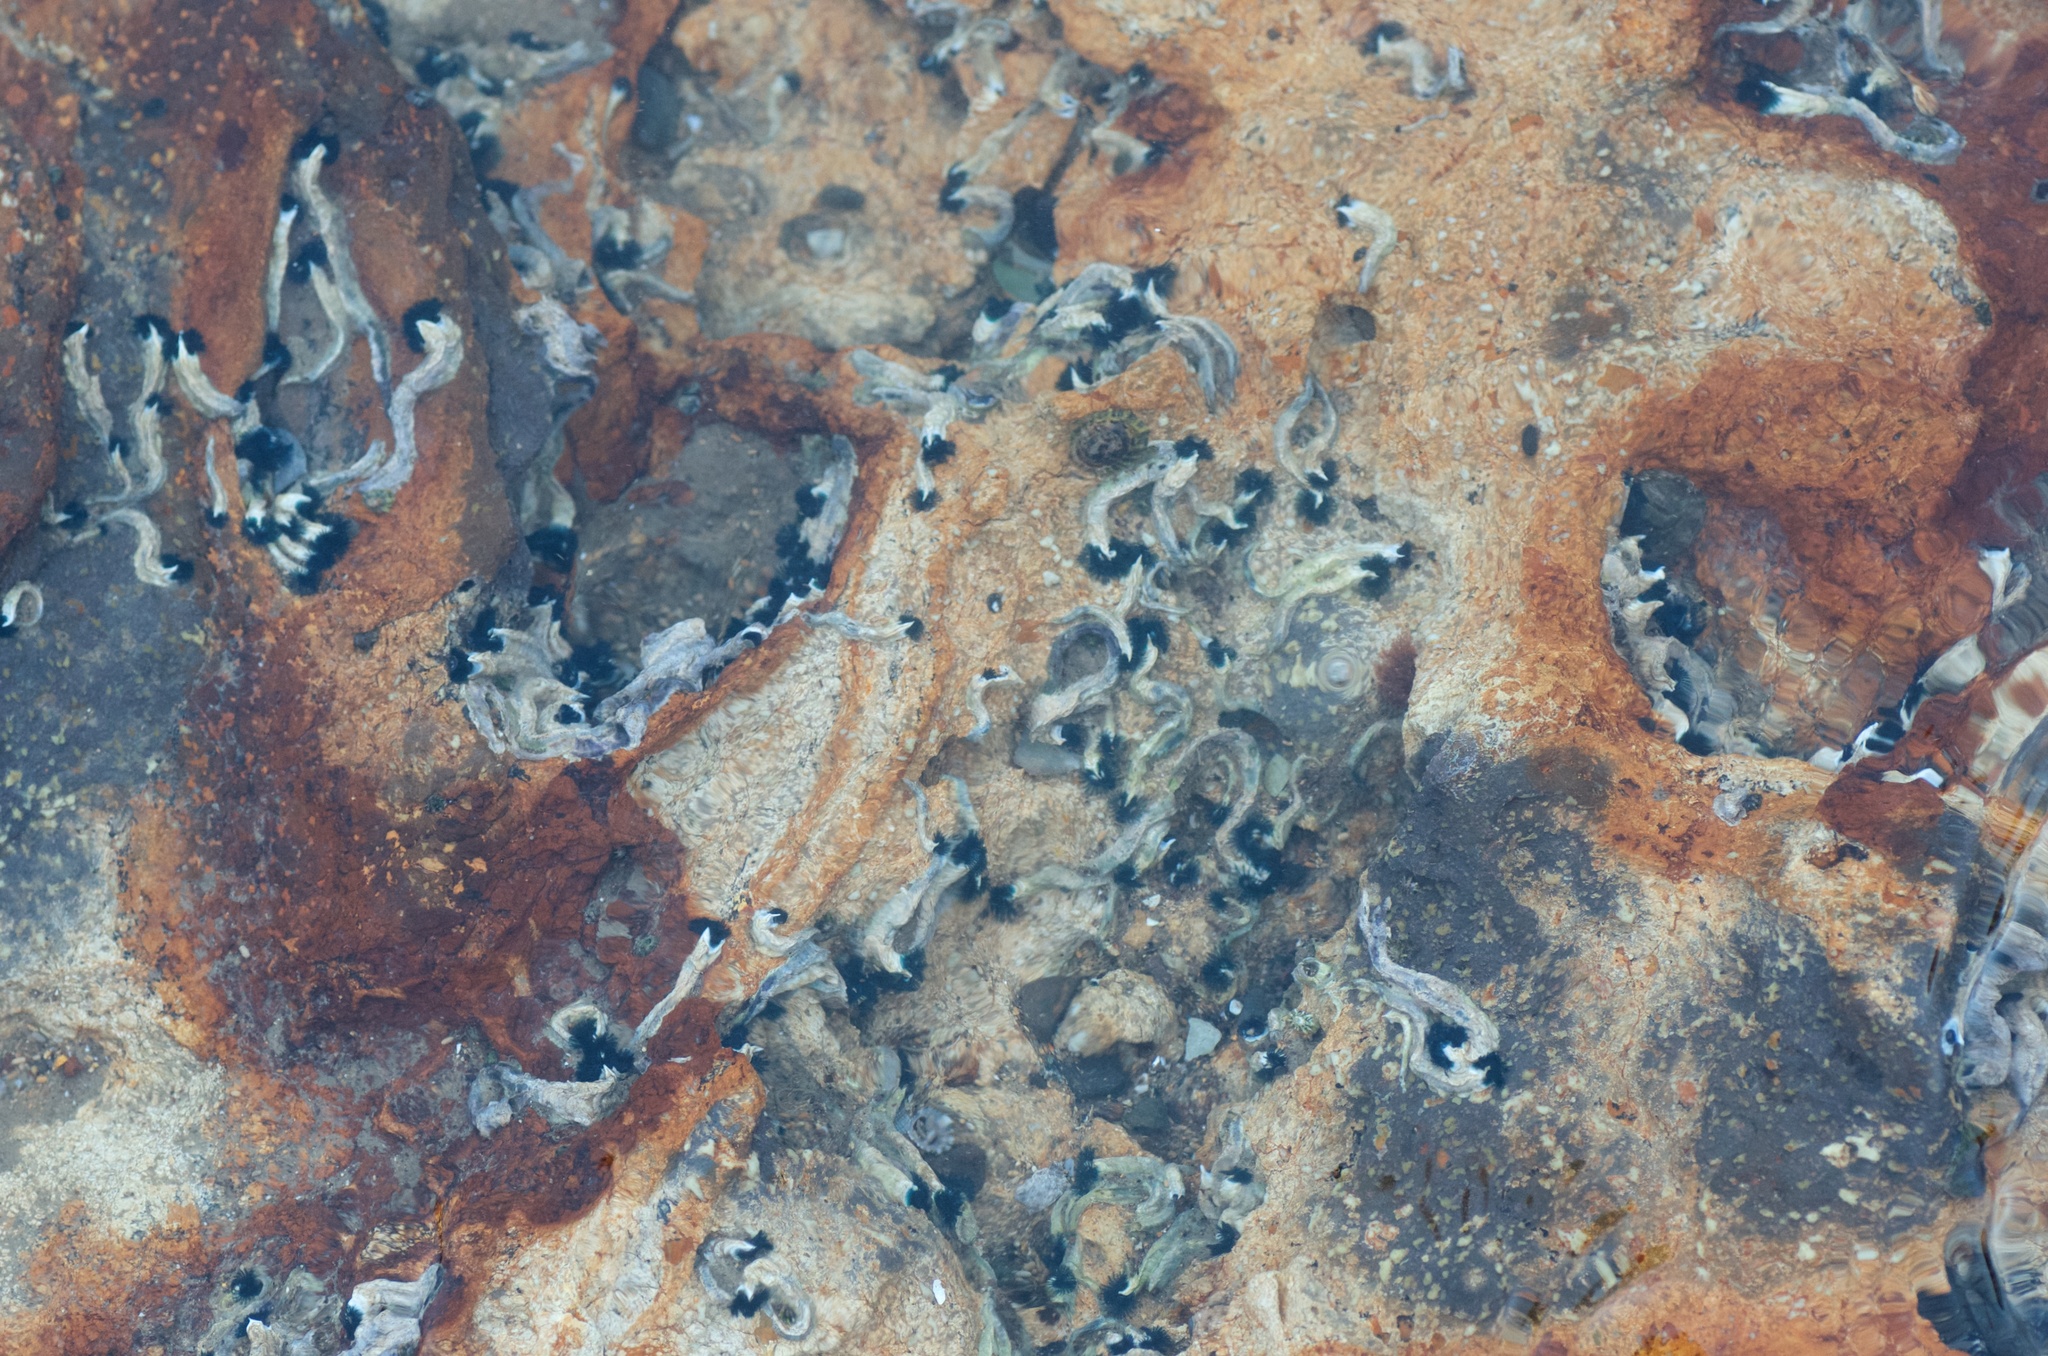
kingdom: Animalia
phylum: Annelida
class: Polychaeta
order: Sabellida
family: Serpulidae
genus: Spirobranchus
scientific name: Spirobranchus cariniferus
